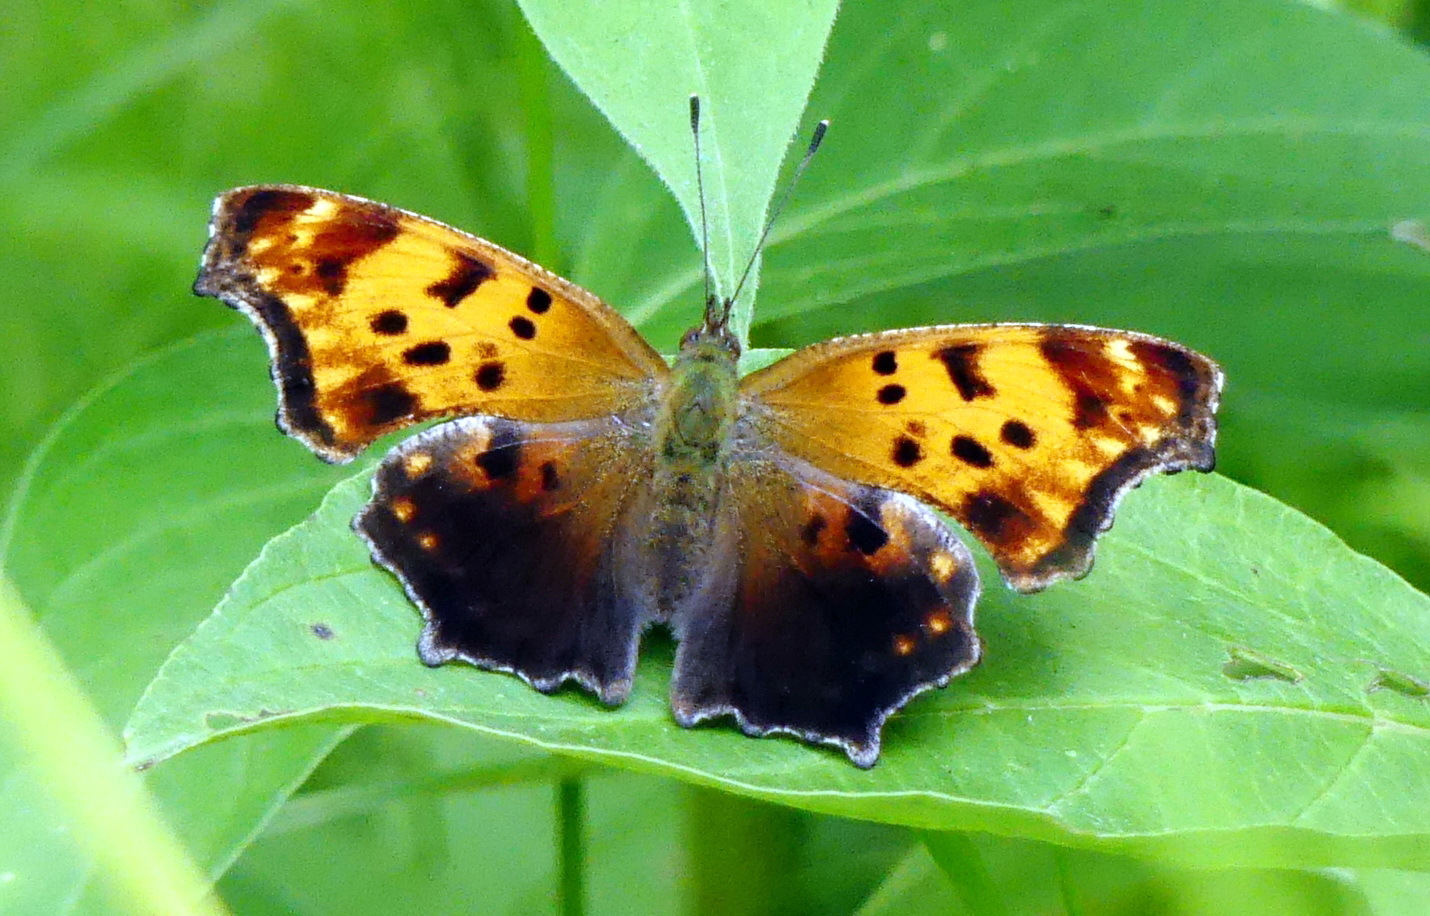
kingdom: Animalia
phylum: Arthropoda
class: Insecta
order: Lepidoptera
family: Nymphalidae
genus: Polygonia
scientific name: Polygonia comma
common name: Eastern comma
